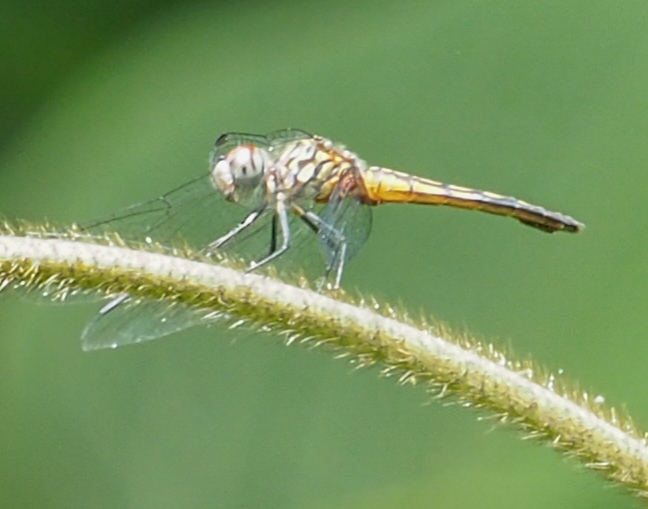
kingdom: Animalia
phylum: Arthropoda
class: Insecta
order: Odonata
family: Libellulidae
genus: Pachydiplax
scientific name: Pachydiplax longipennis
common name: Blue dasher
